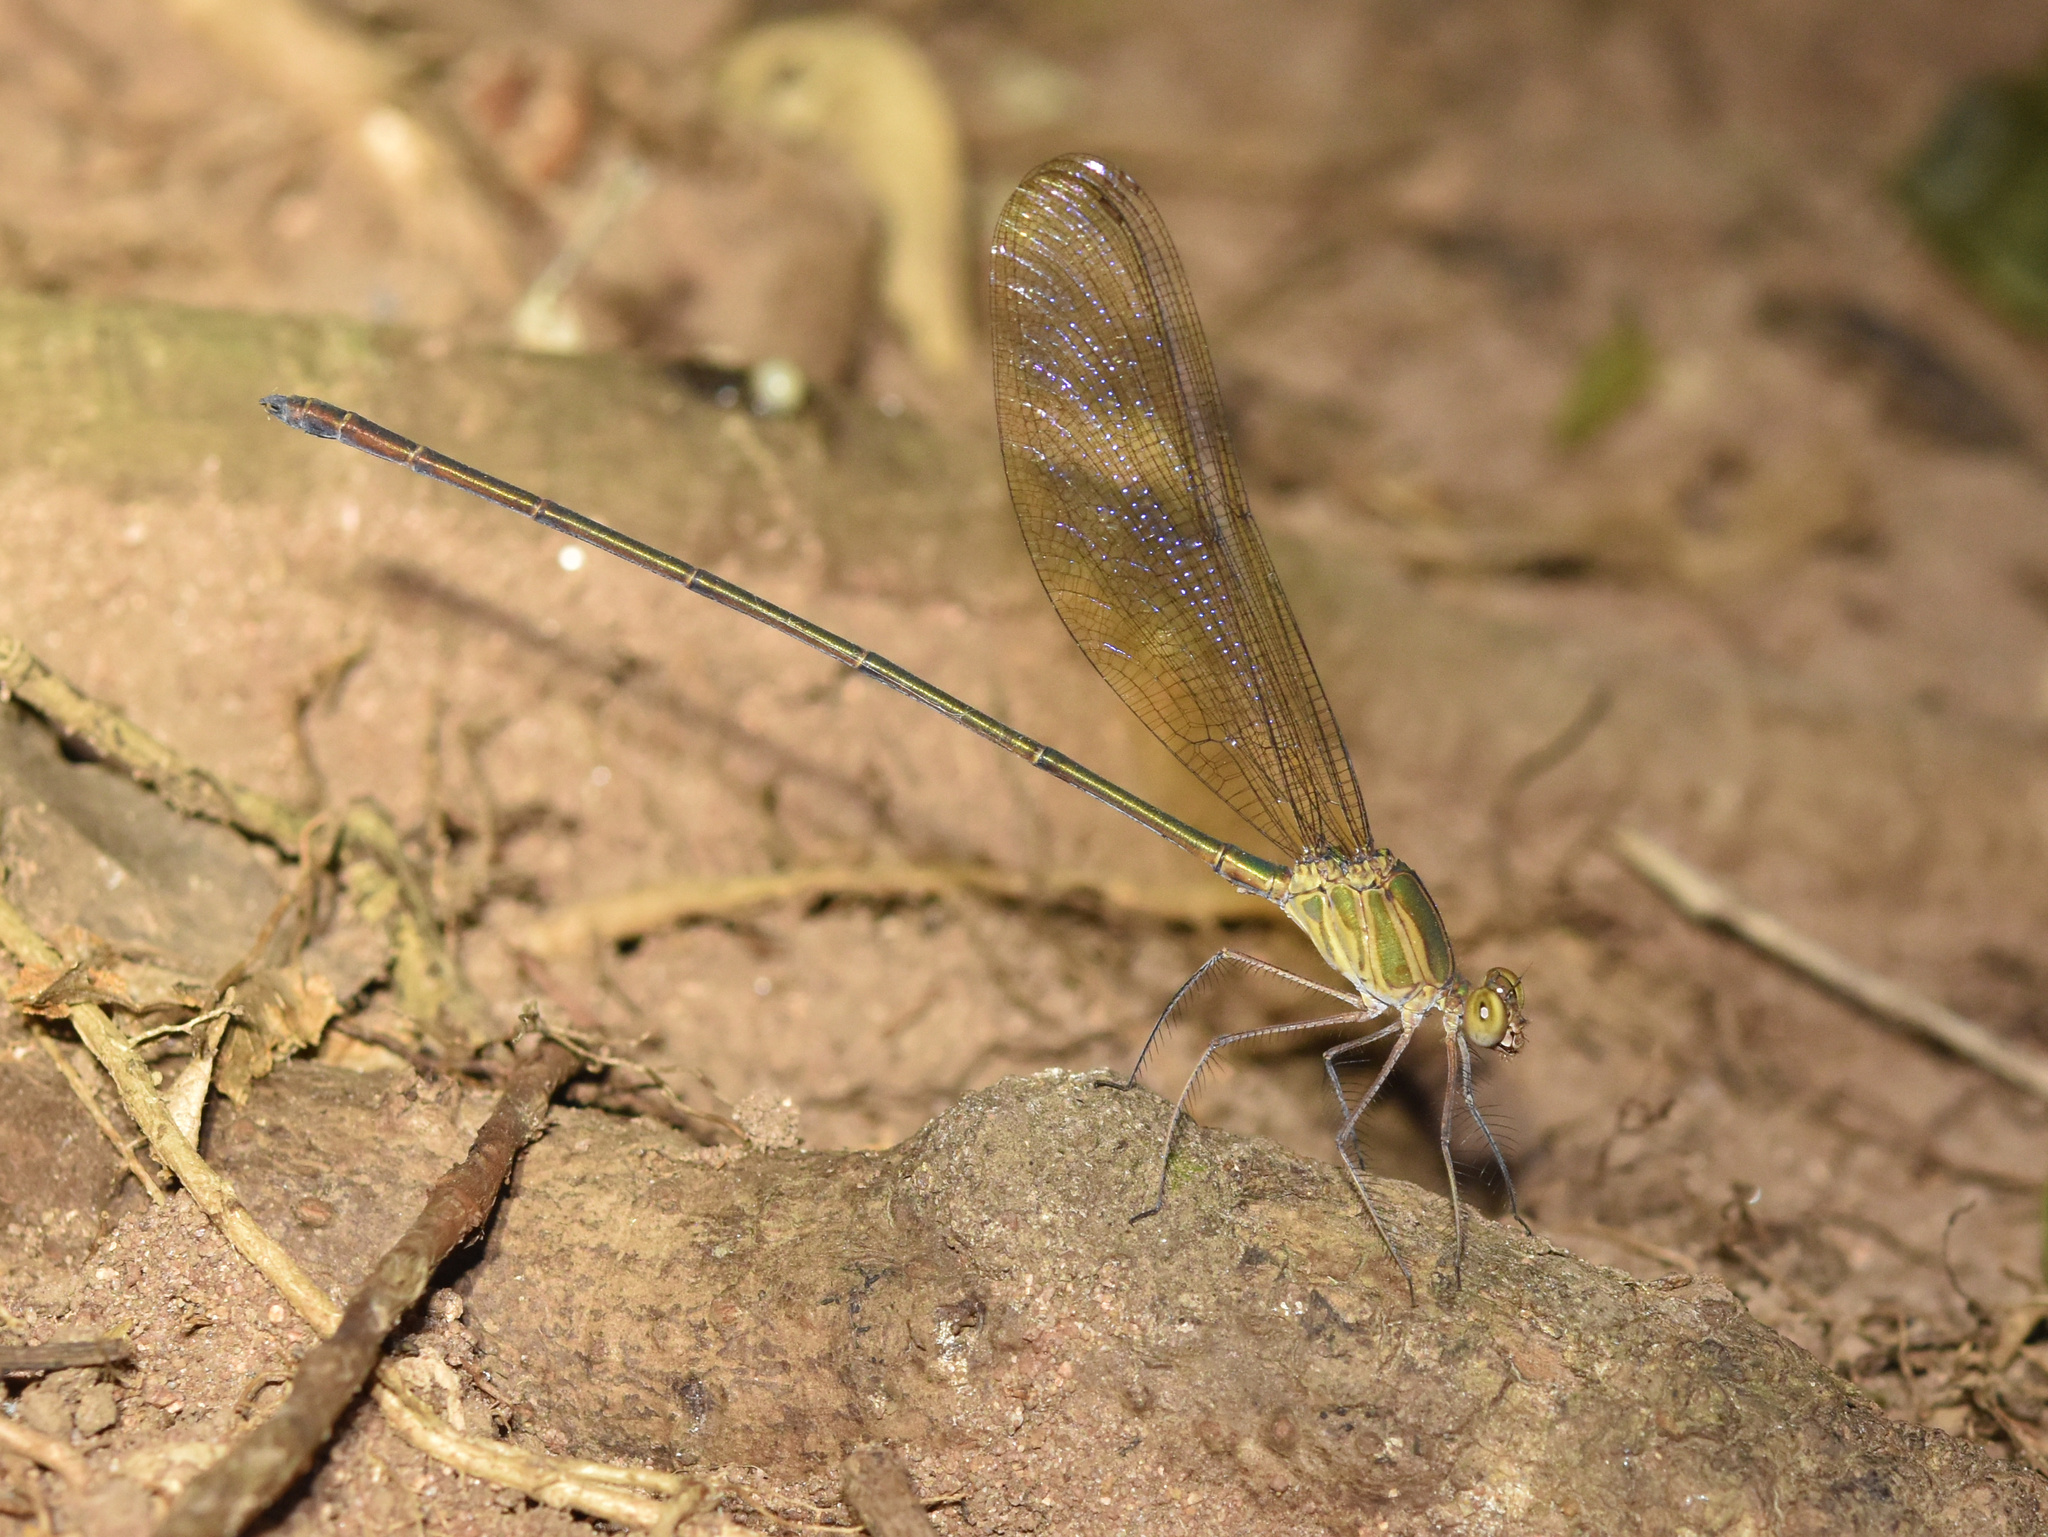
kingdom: Animalia
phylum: Arthropoda
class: Insecta
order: Odonata
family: Calopterygidae
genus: Phaon
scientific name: Phaon iridipennis
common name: Glistening demoiselle
